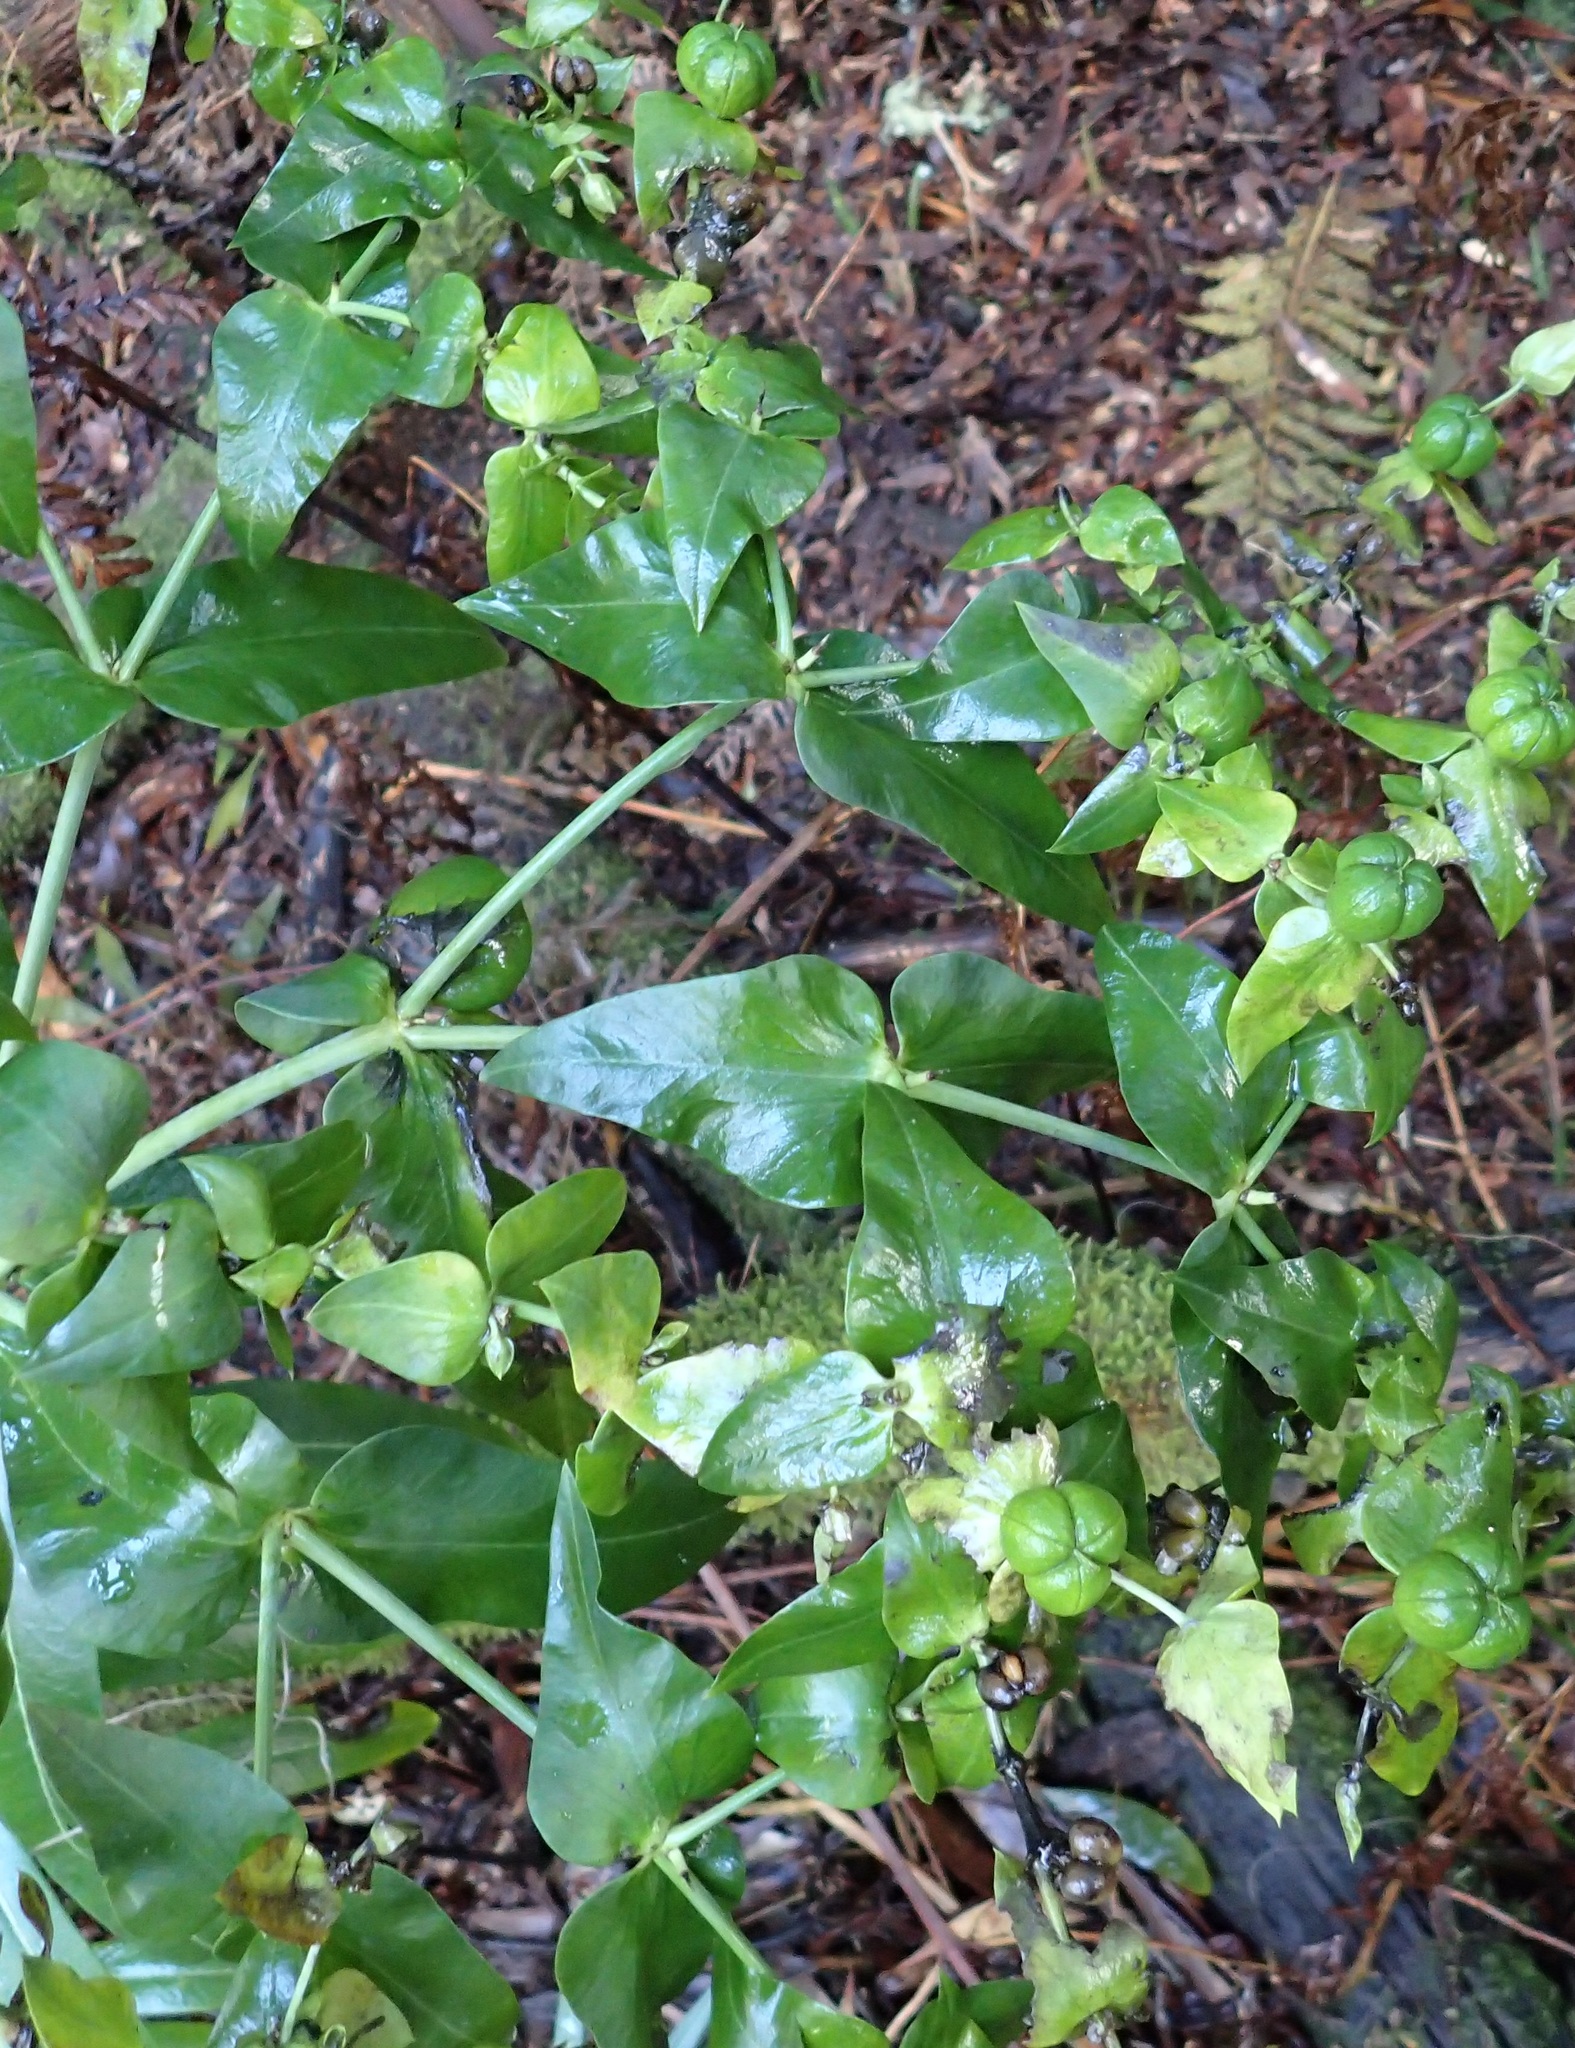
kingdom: Plantae
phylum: Tracheophyta
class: Magnoliopsida
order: Malpighiales
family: Euphorbiaceae
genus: Euphorbia
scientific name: Euphorbia lathyris
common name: Caper spurge
